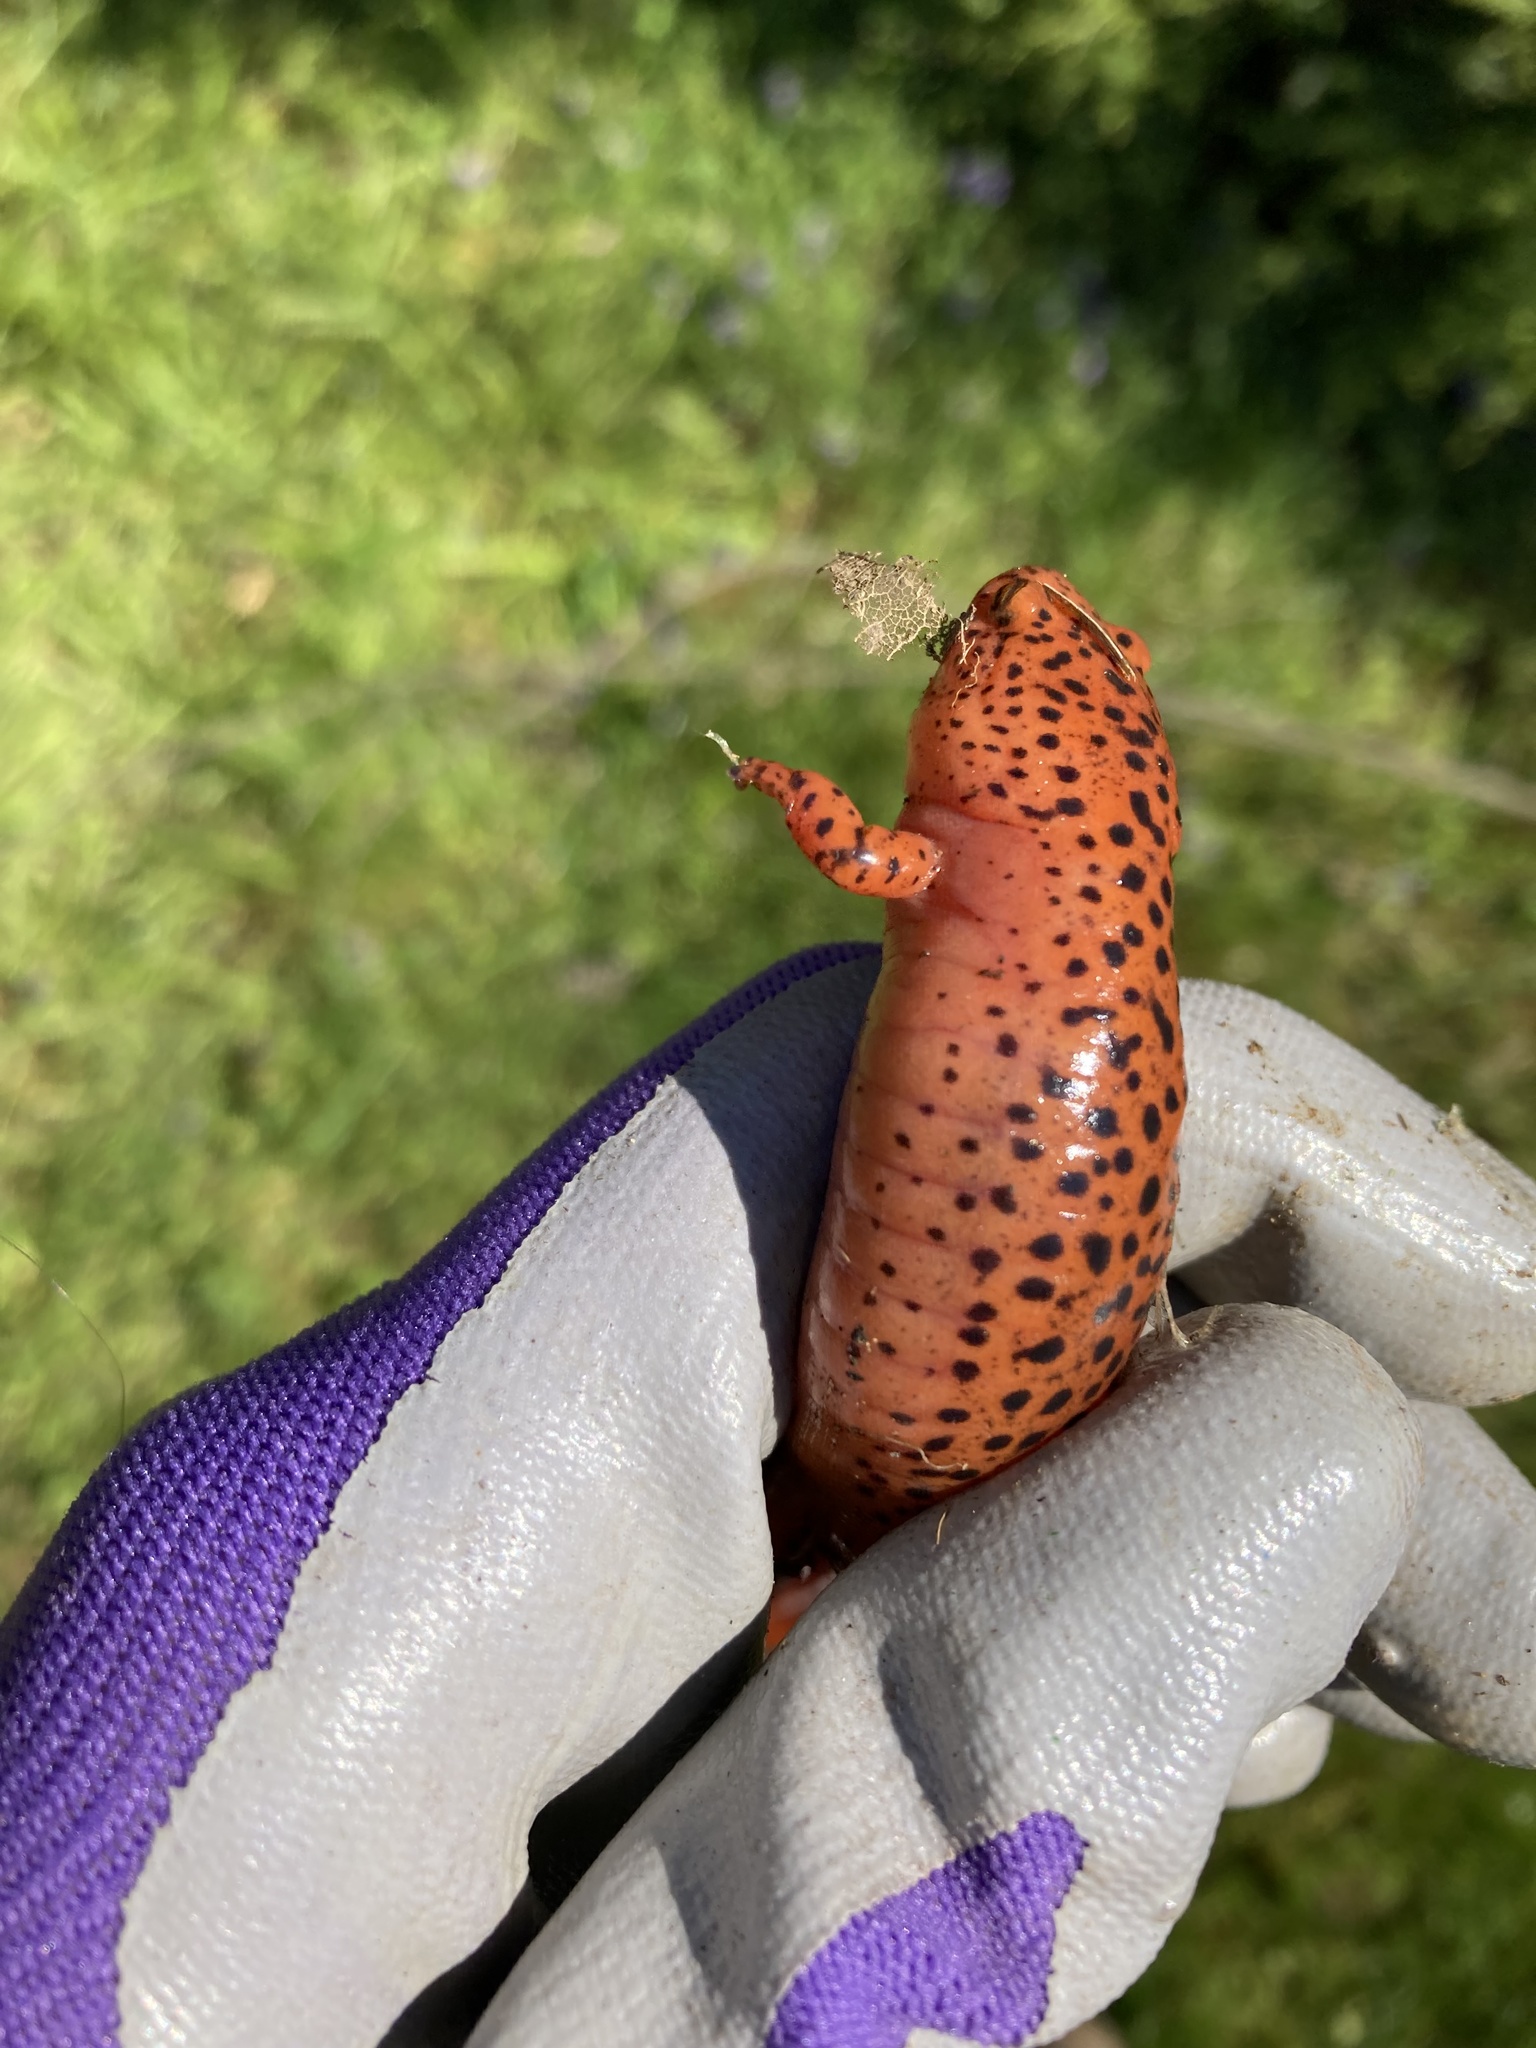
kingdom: Animalia
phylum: Chordata
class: Amphibia
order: Caudata
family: Plethodontidae
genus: Pseudotriton
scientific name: Pseudotriton ruber
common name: Red salamander
